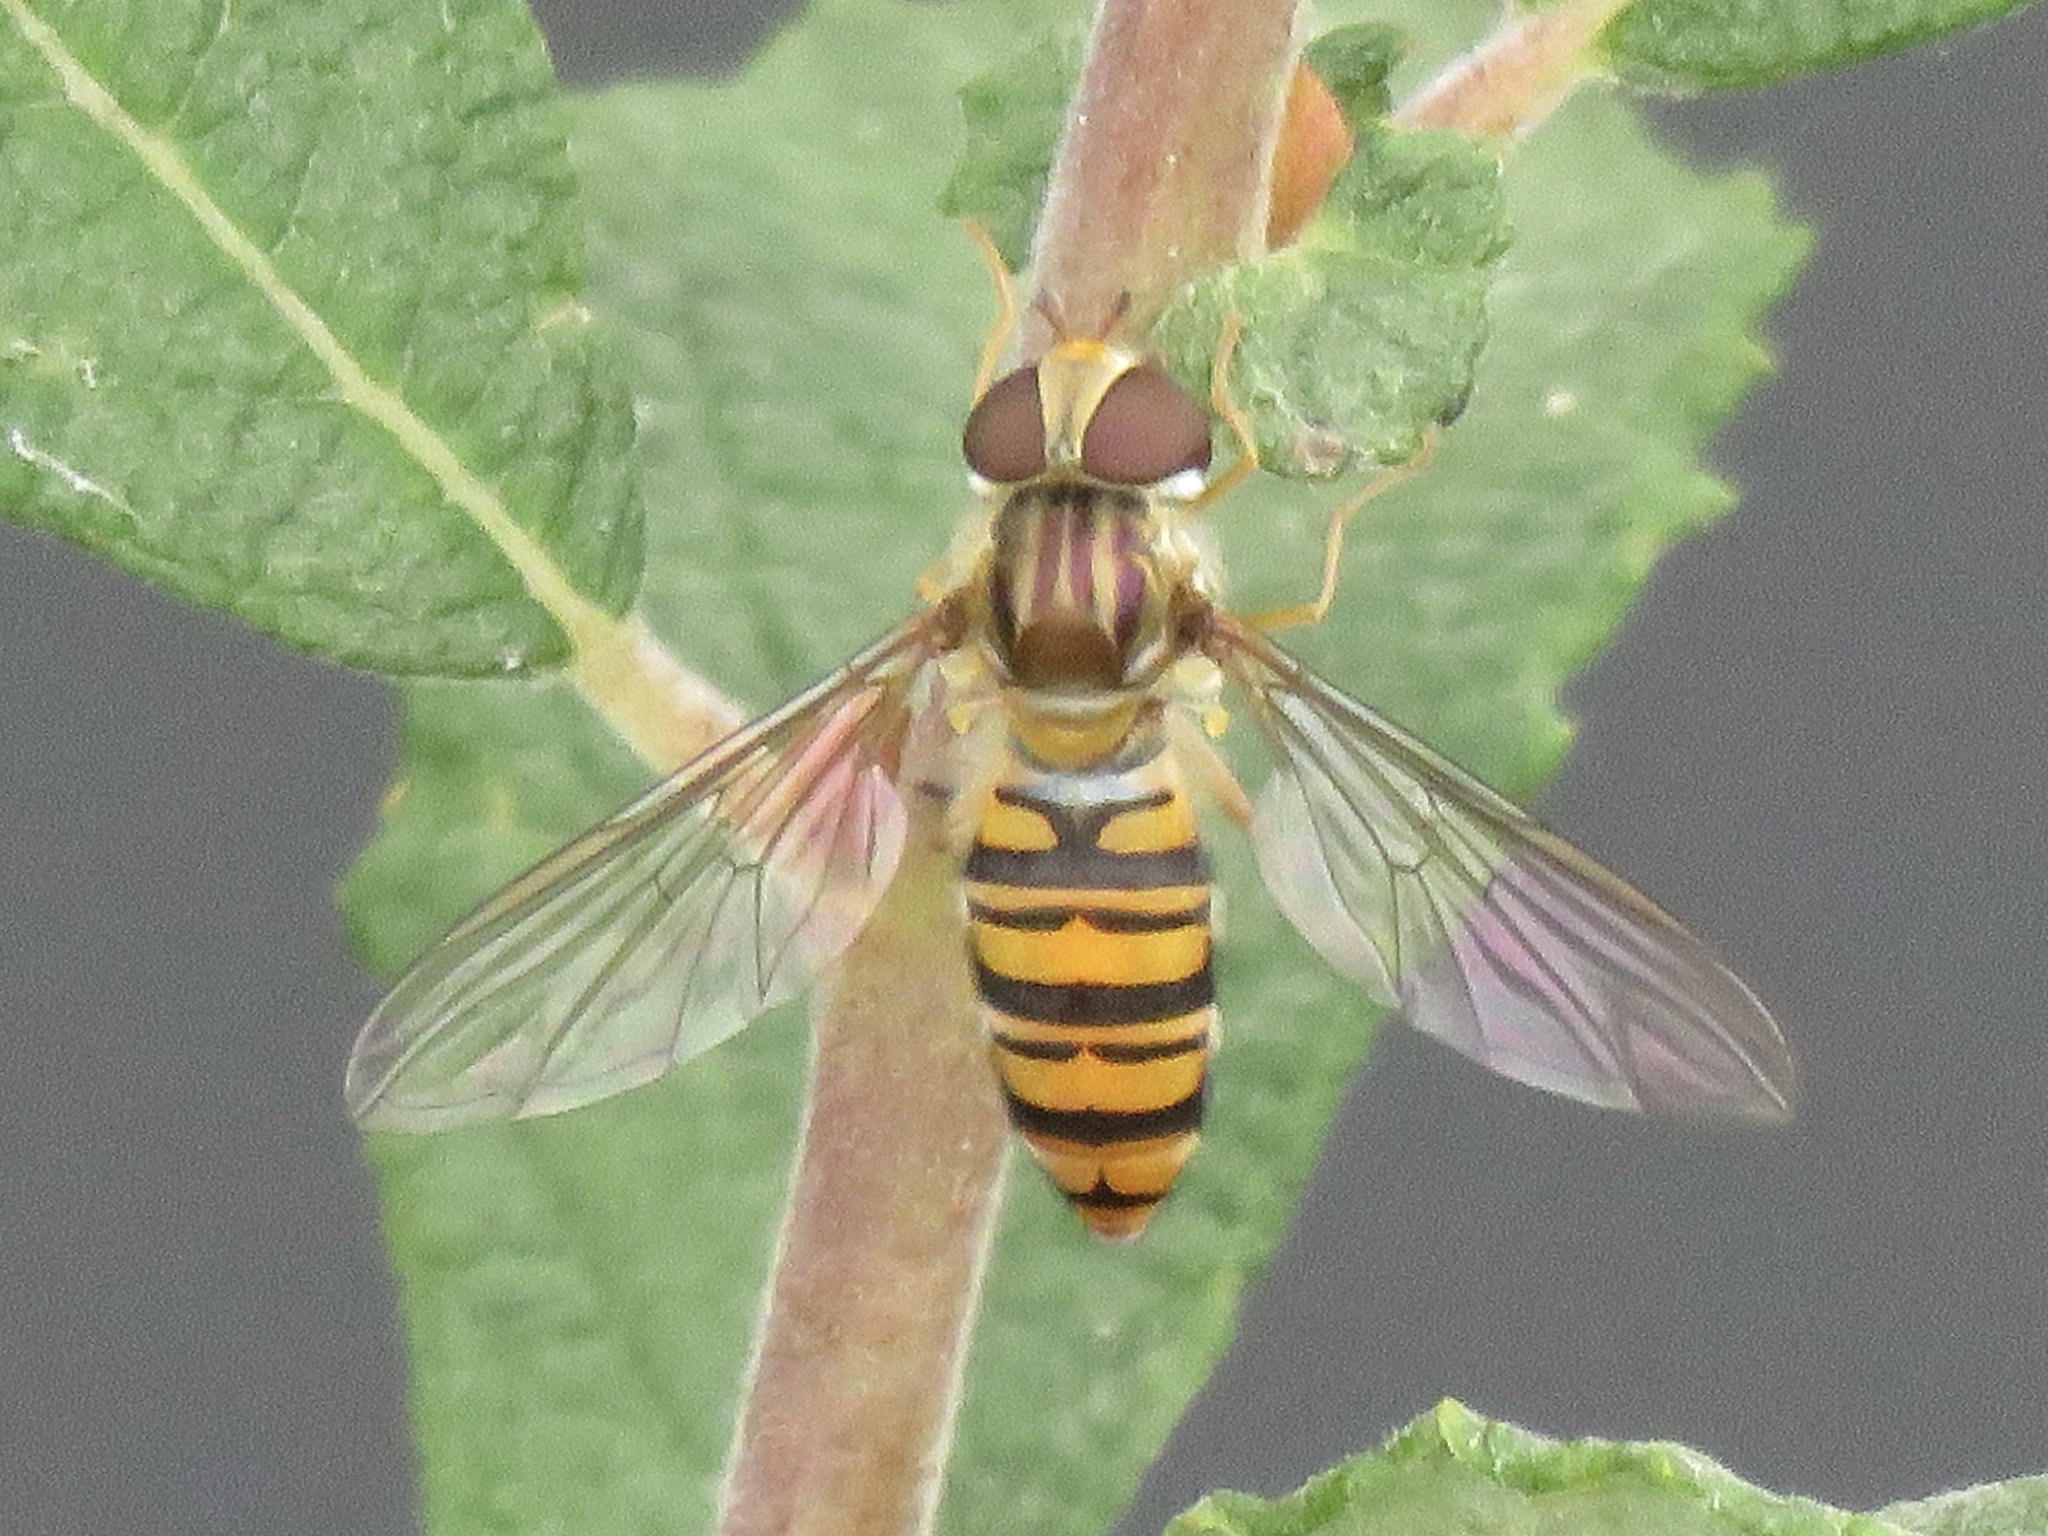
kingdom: Animalia
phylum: Arthropoda
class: Insecta
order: Diptera
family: Syrphidae
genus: Episyrphus
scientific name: Episyrphus balteatus
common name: Marmalade hoverfly
